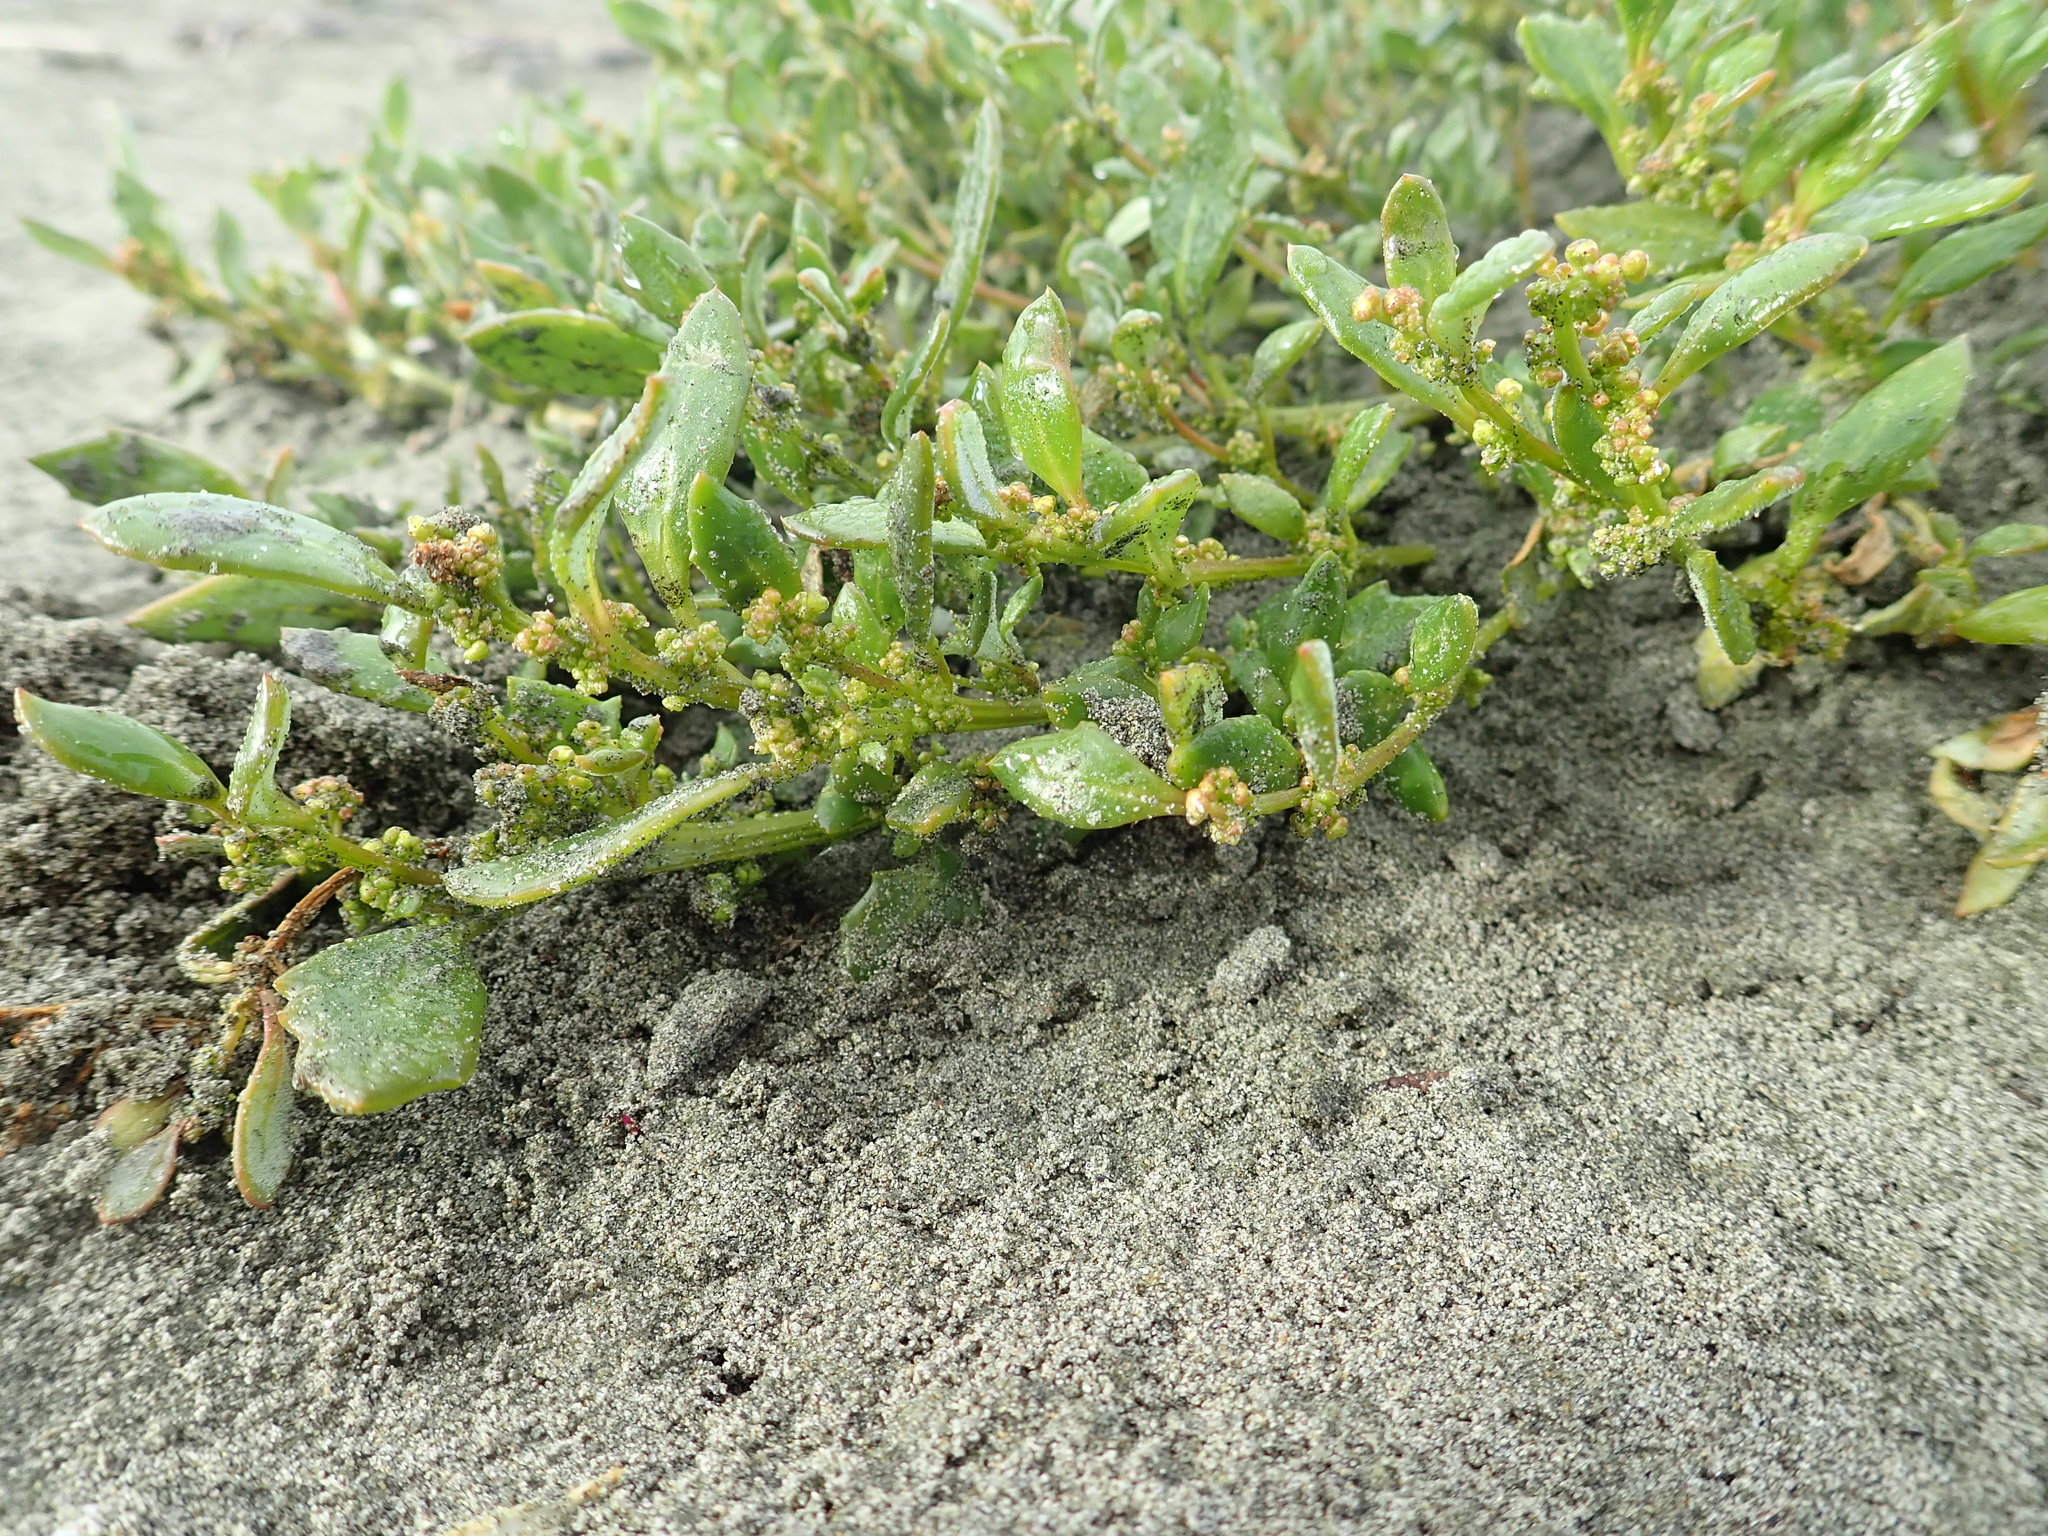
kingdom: Plantae
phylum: Tracheophyta
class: Magnoliopsida
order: Caryophyllales
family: Amaranthaceae
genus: Oxybasis
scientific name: Oxybasis ambigua
